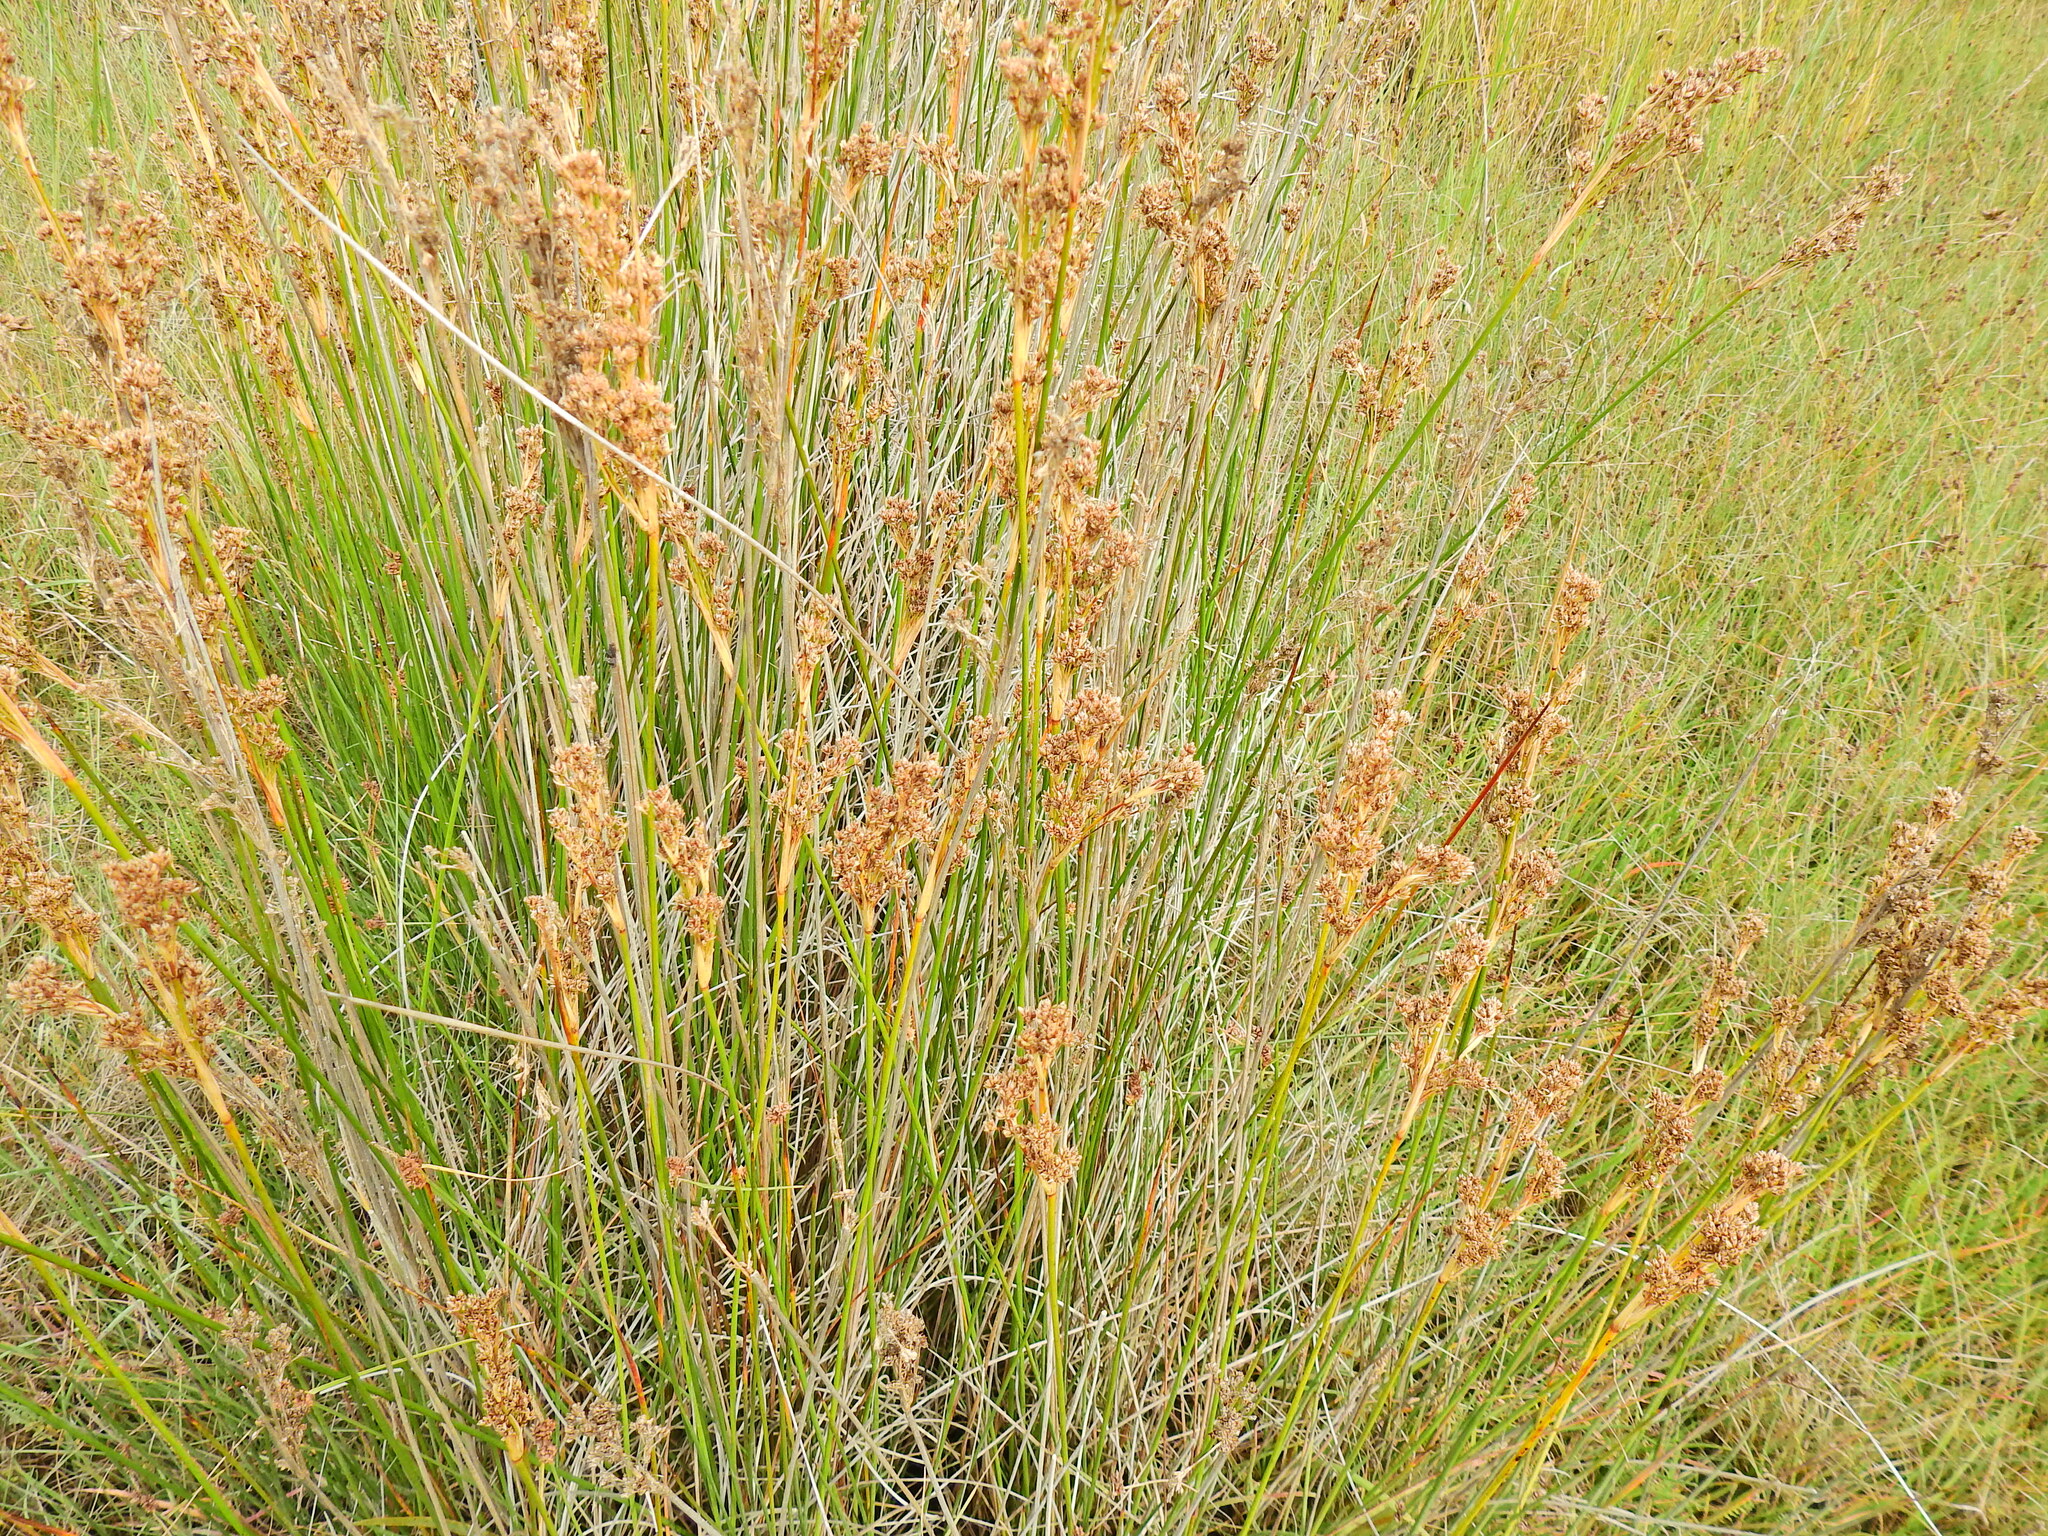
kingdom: Plantae
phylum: Tracheophyta
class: Liliopsida
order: Poales
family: Juncaceae
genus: Juncus
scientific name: Juncus maritimus
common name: Sea rush
